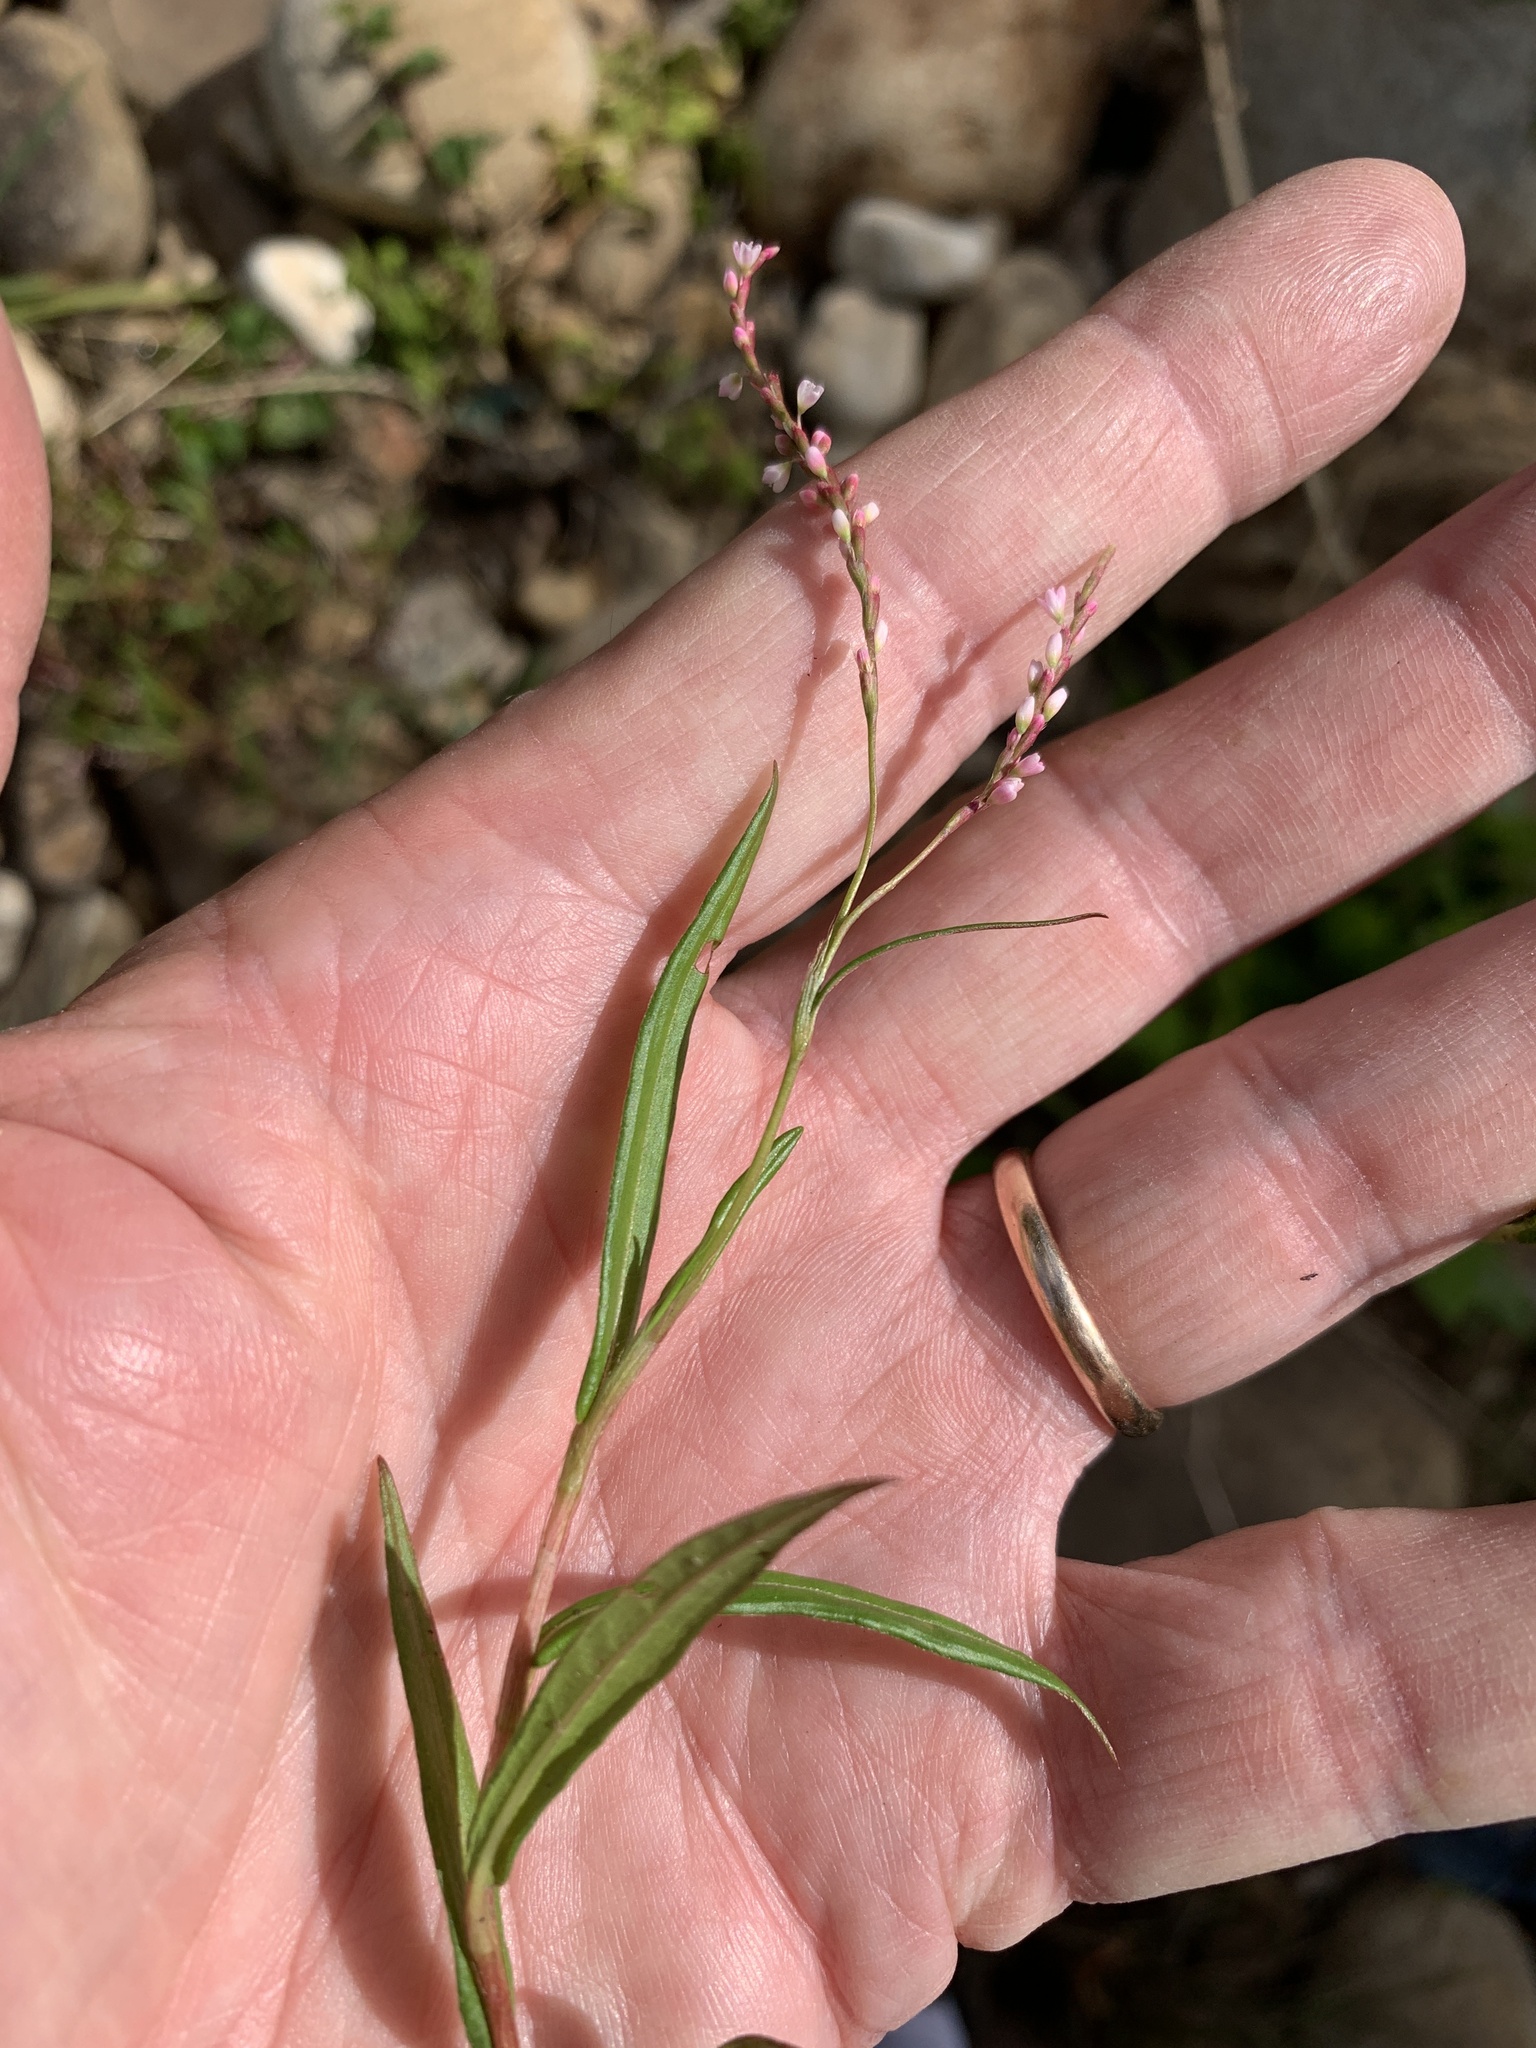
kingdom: Plantae
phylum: Tracheophyta
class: Magnoliopsida
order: Caryophyllales
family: Polygonaceae
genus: Persicaria
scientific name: Persicaria decipiens
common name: Willow-weed
